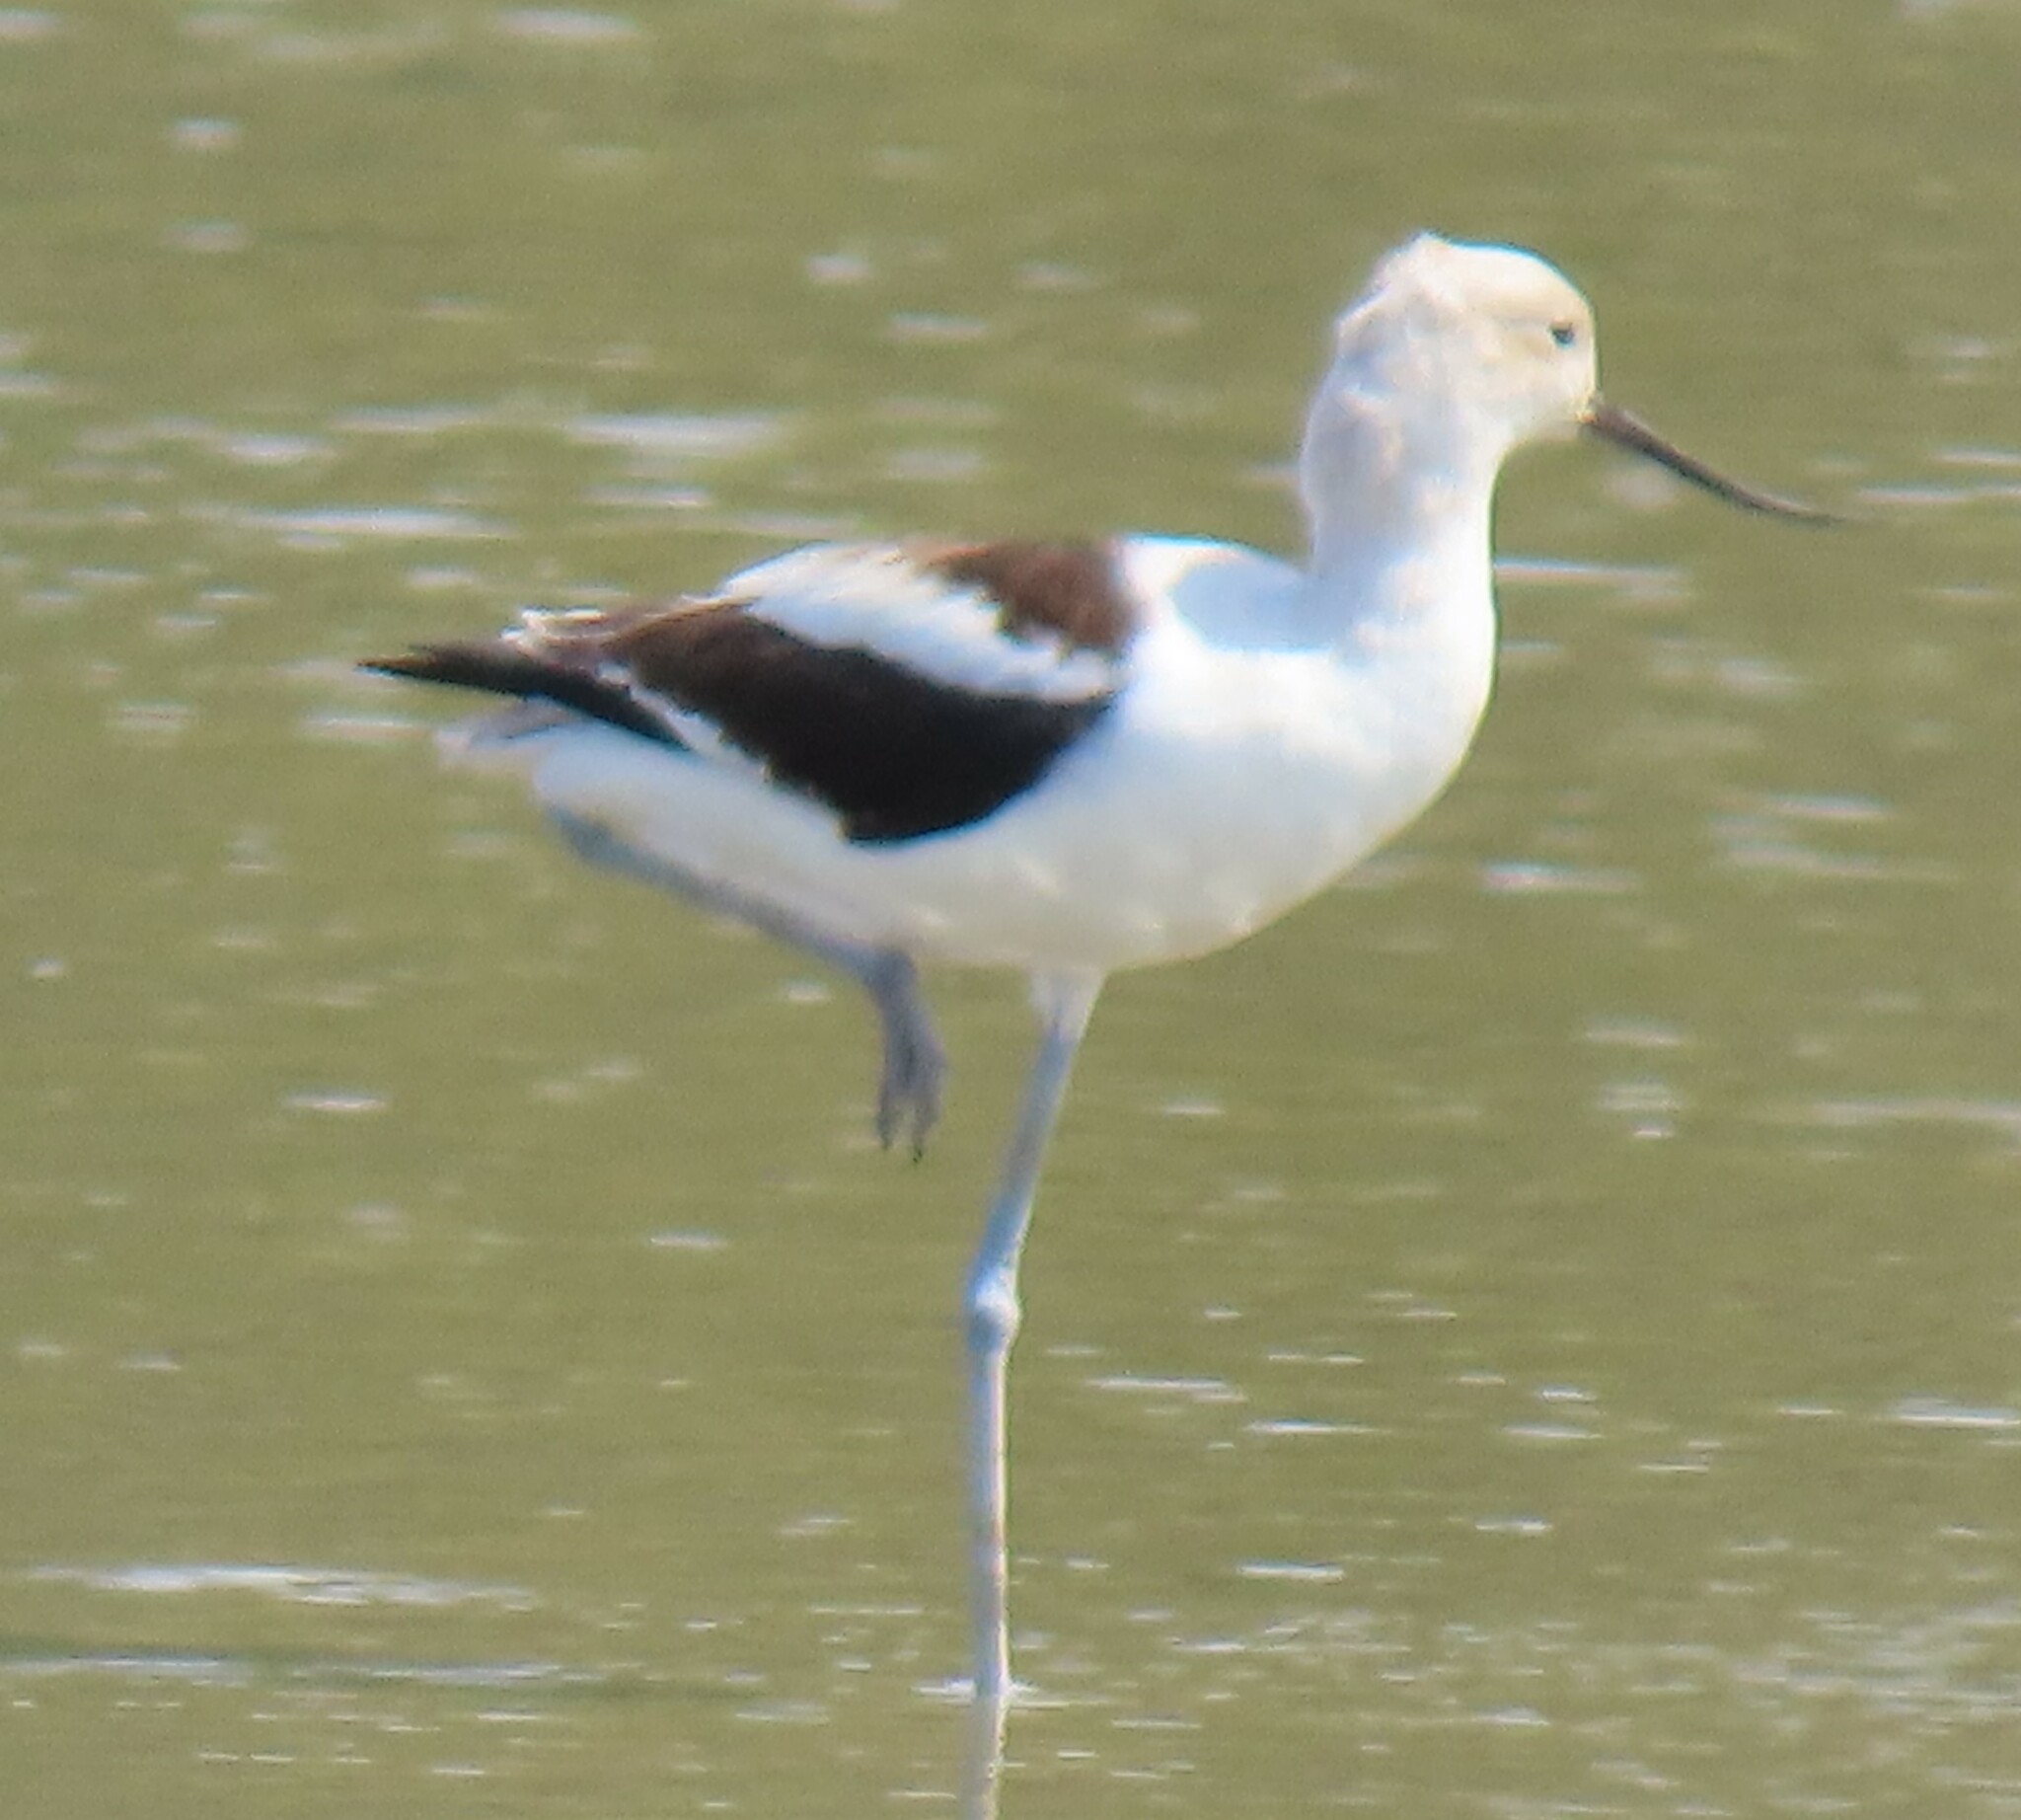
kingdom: Animalia
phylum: Chordata
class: Aves
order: Charadriiformes
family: Recurvirostridae
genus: Recurvirostra
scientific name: Recurvirostra americana
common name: American avocet
